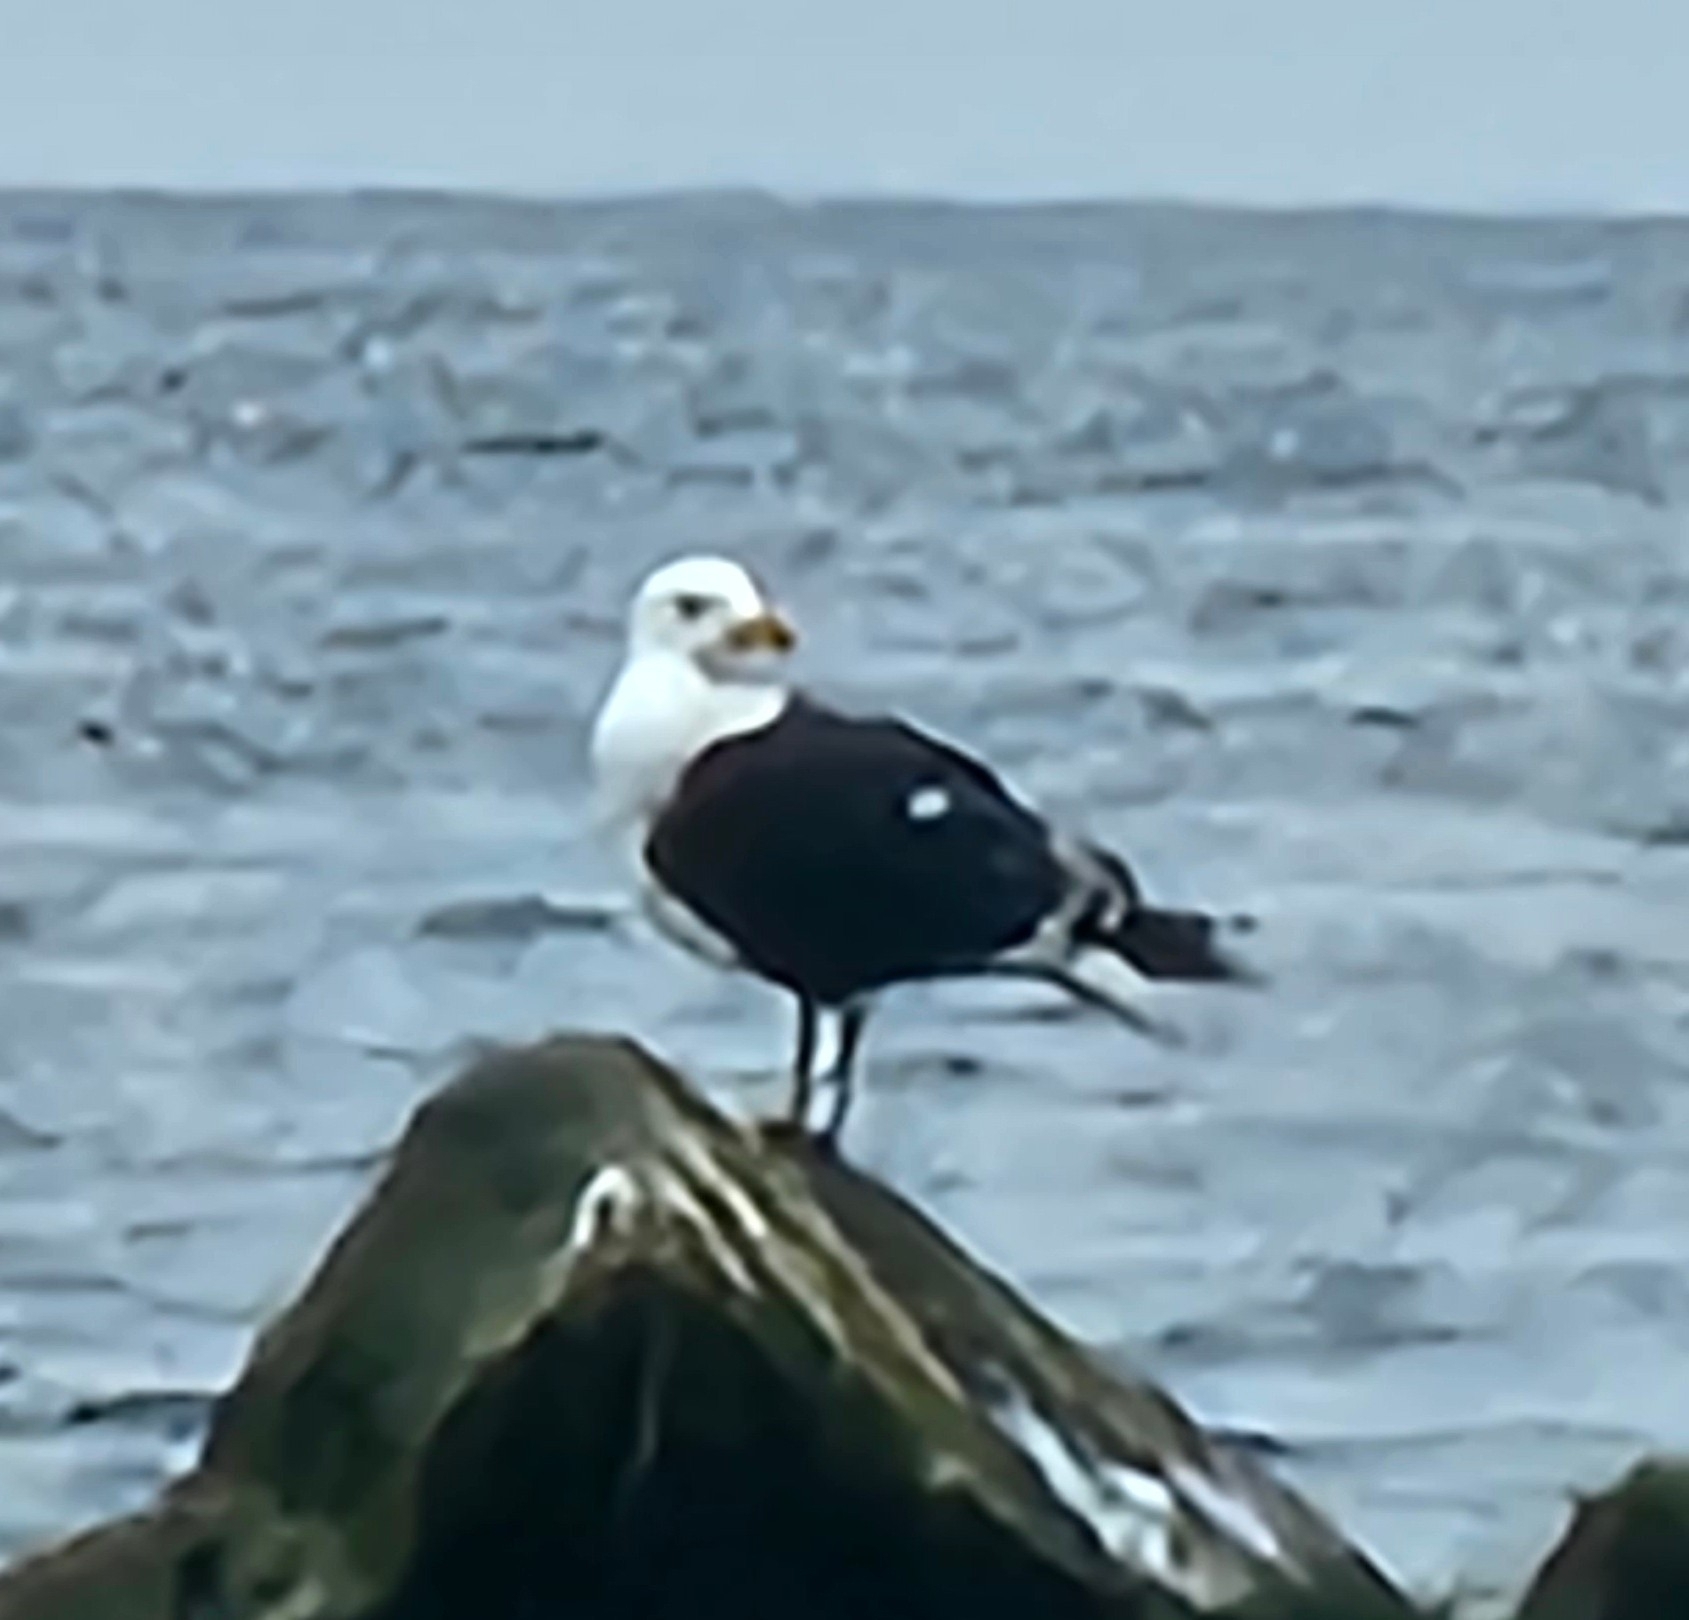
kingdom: Animalia
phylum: Chordata
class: Aves
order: Charadriiformes
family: Laridae
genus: Larus
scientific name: Larus marinus
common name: Great black-backed gull
